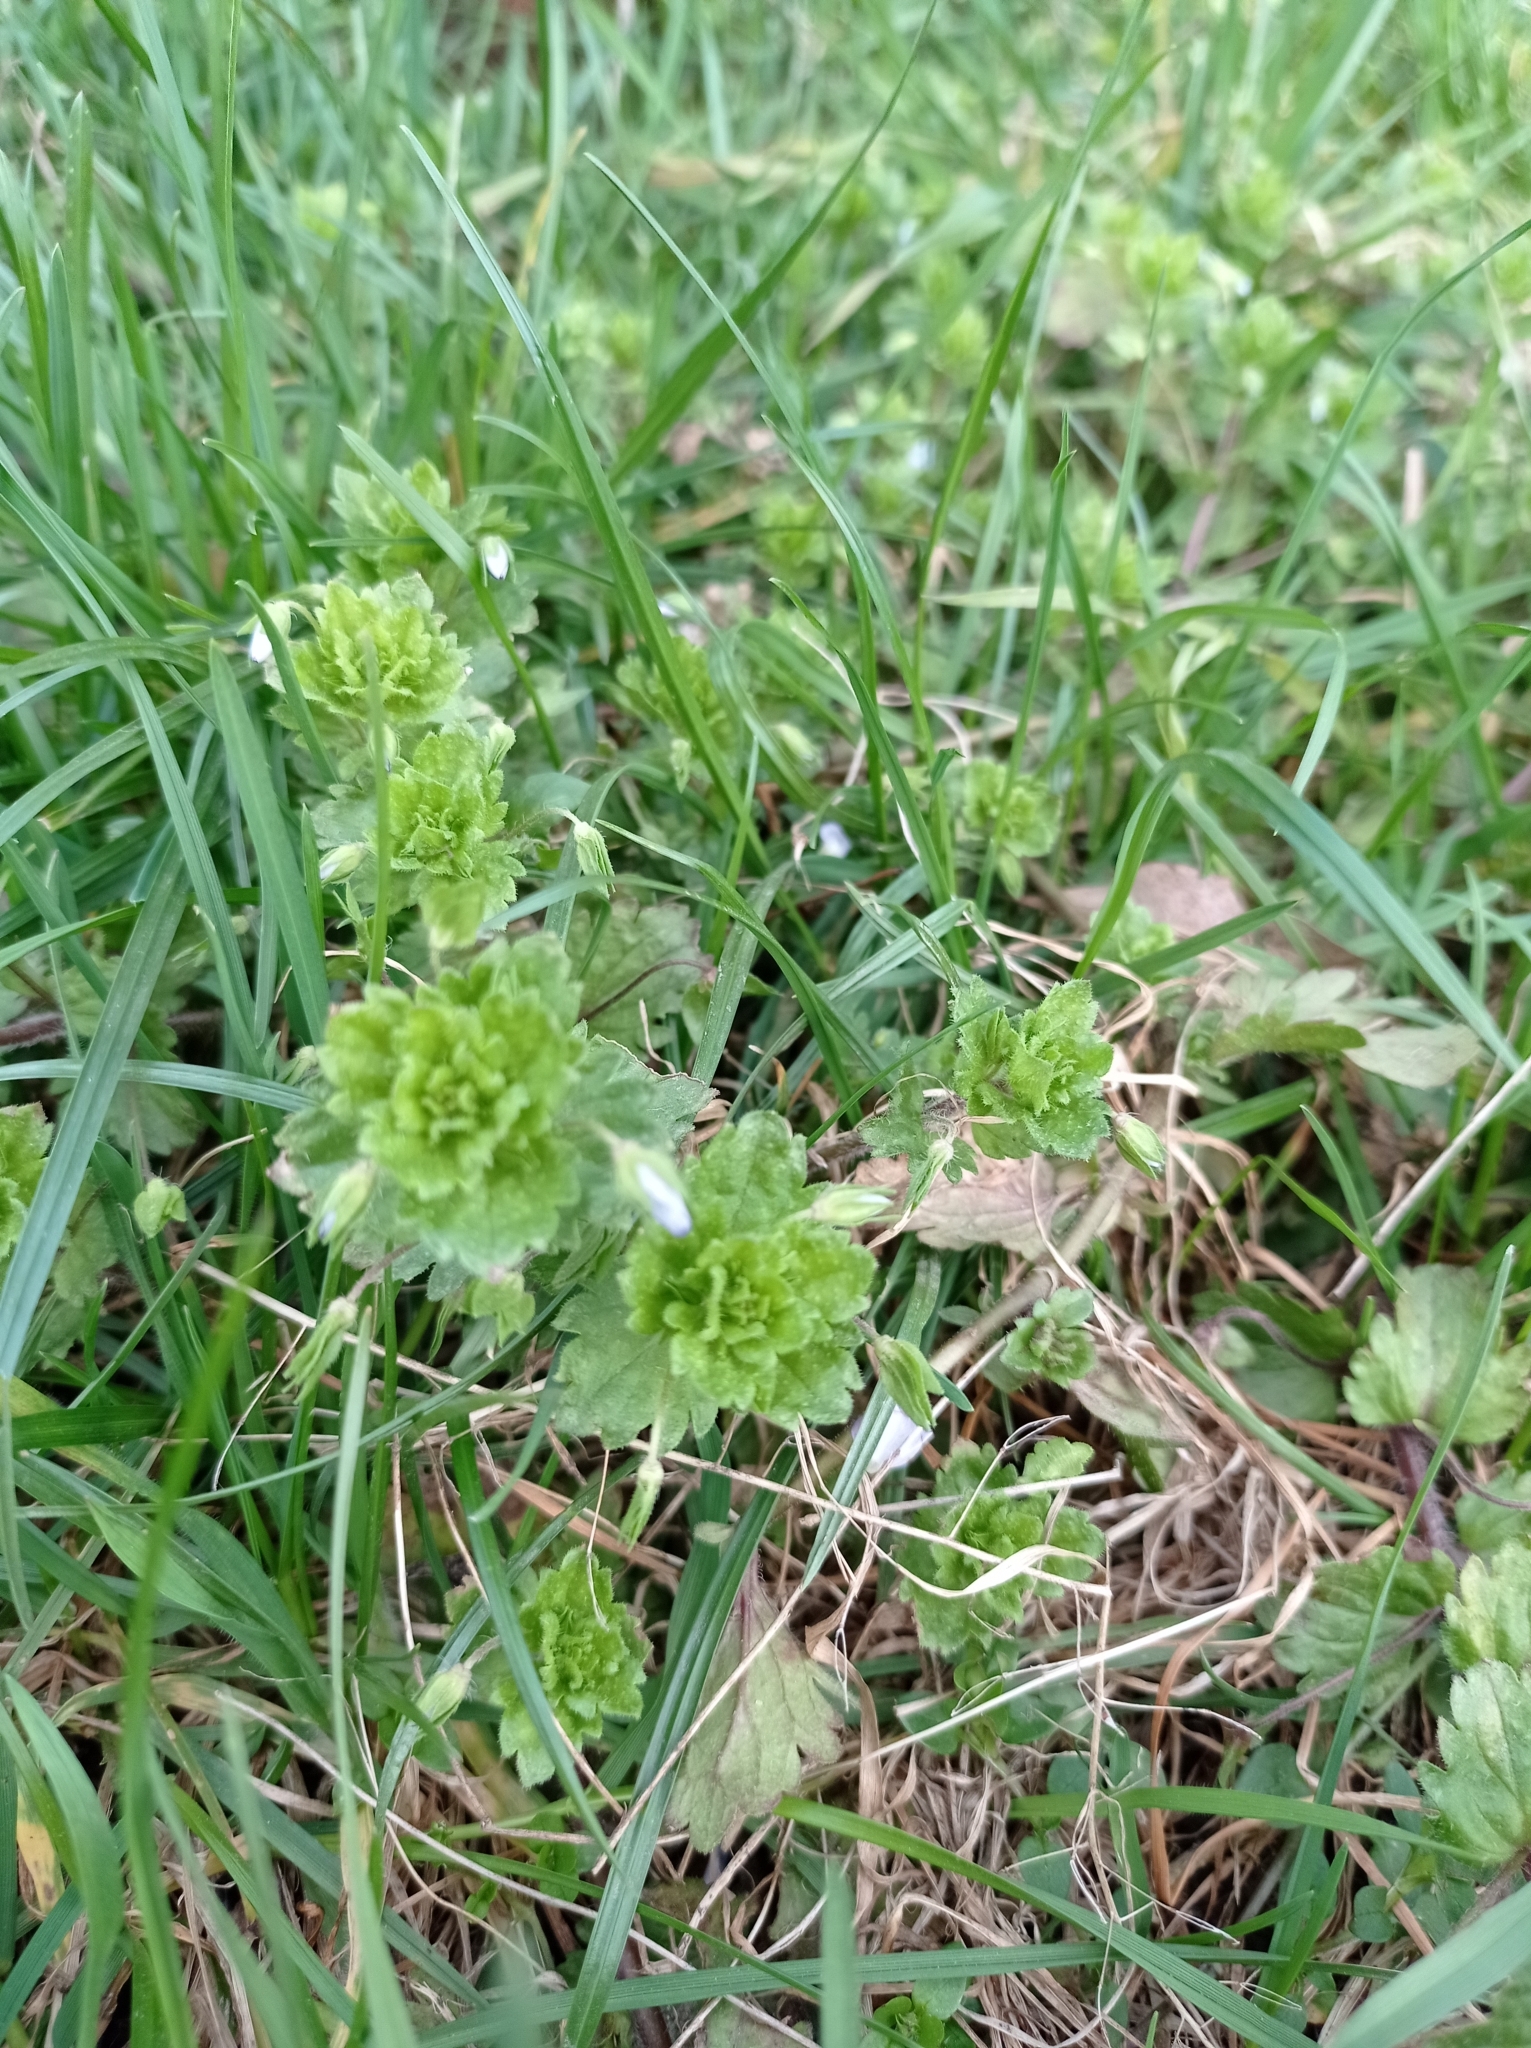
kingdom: Plantae
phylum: Tracheophyta
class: Magnoliopsida
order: Lamiales
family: Plantaginaceae
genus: Veronica
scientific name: Veronica persica
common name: Common field-speedwell
